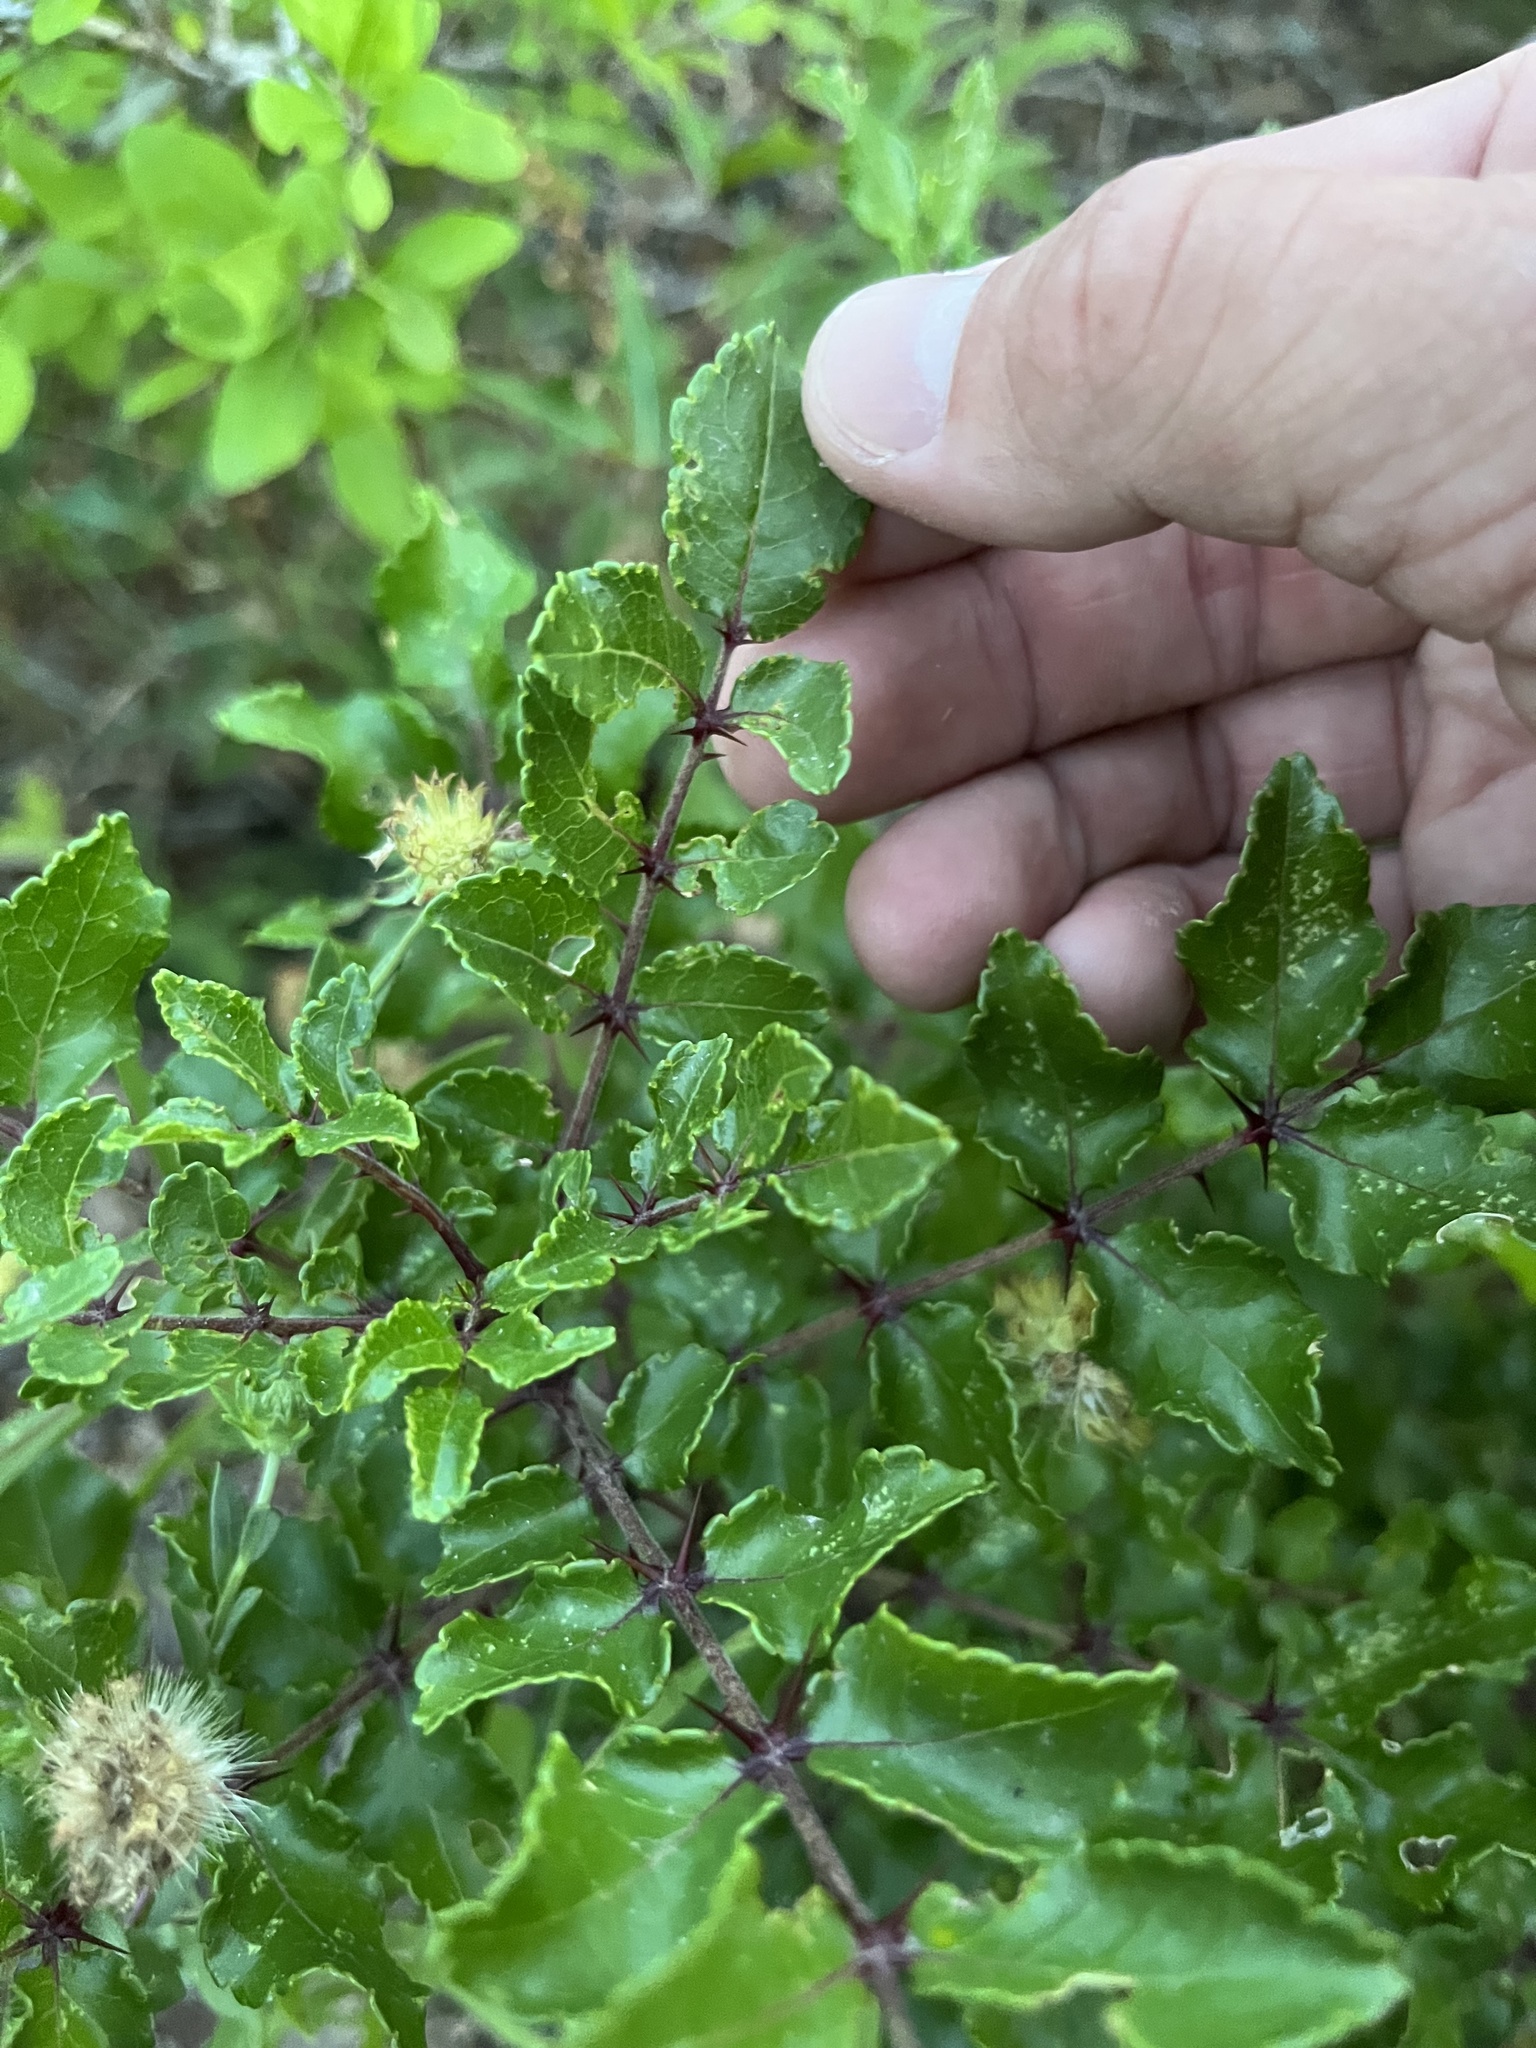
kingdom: Plantae
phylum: Tracheophyta
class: Magnoliopsida
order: Sapindales
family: Rutaceae
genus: Zanthoxylum
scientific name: Zanthoxylum clava-herculis
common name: Hercules'-club
